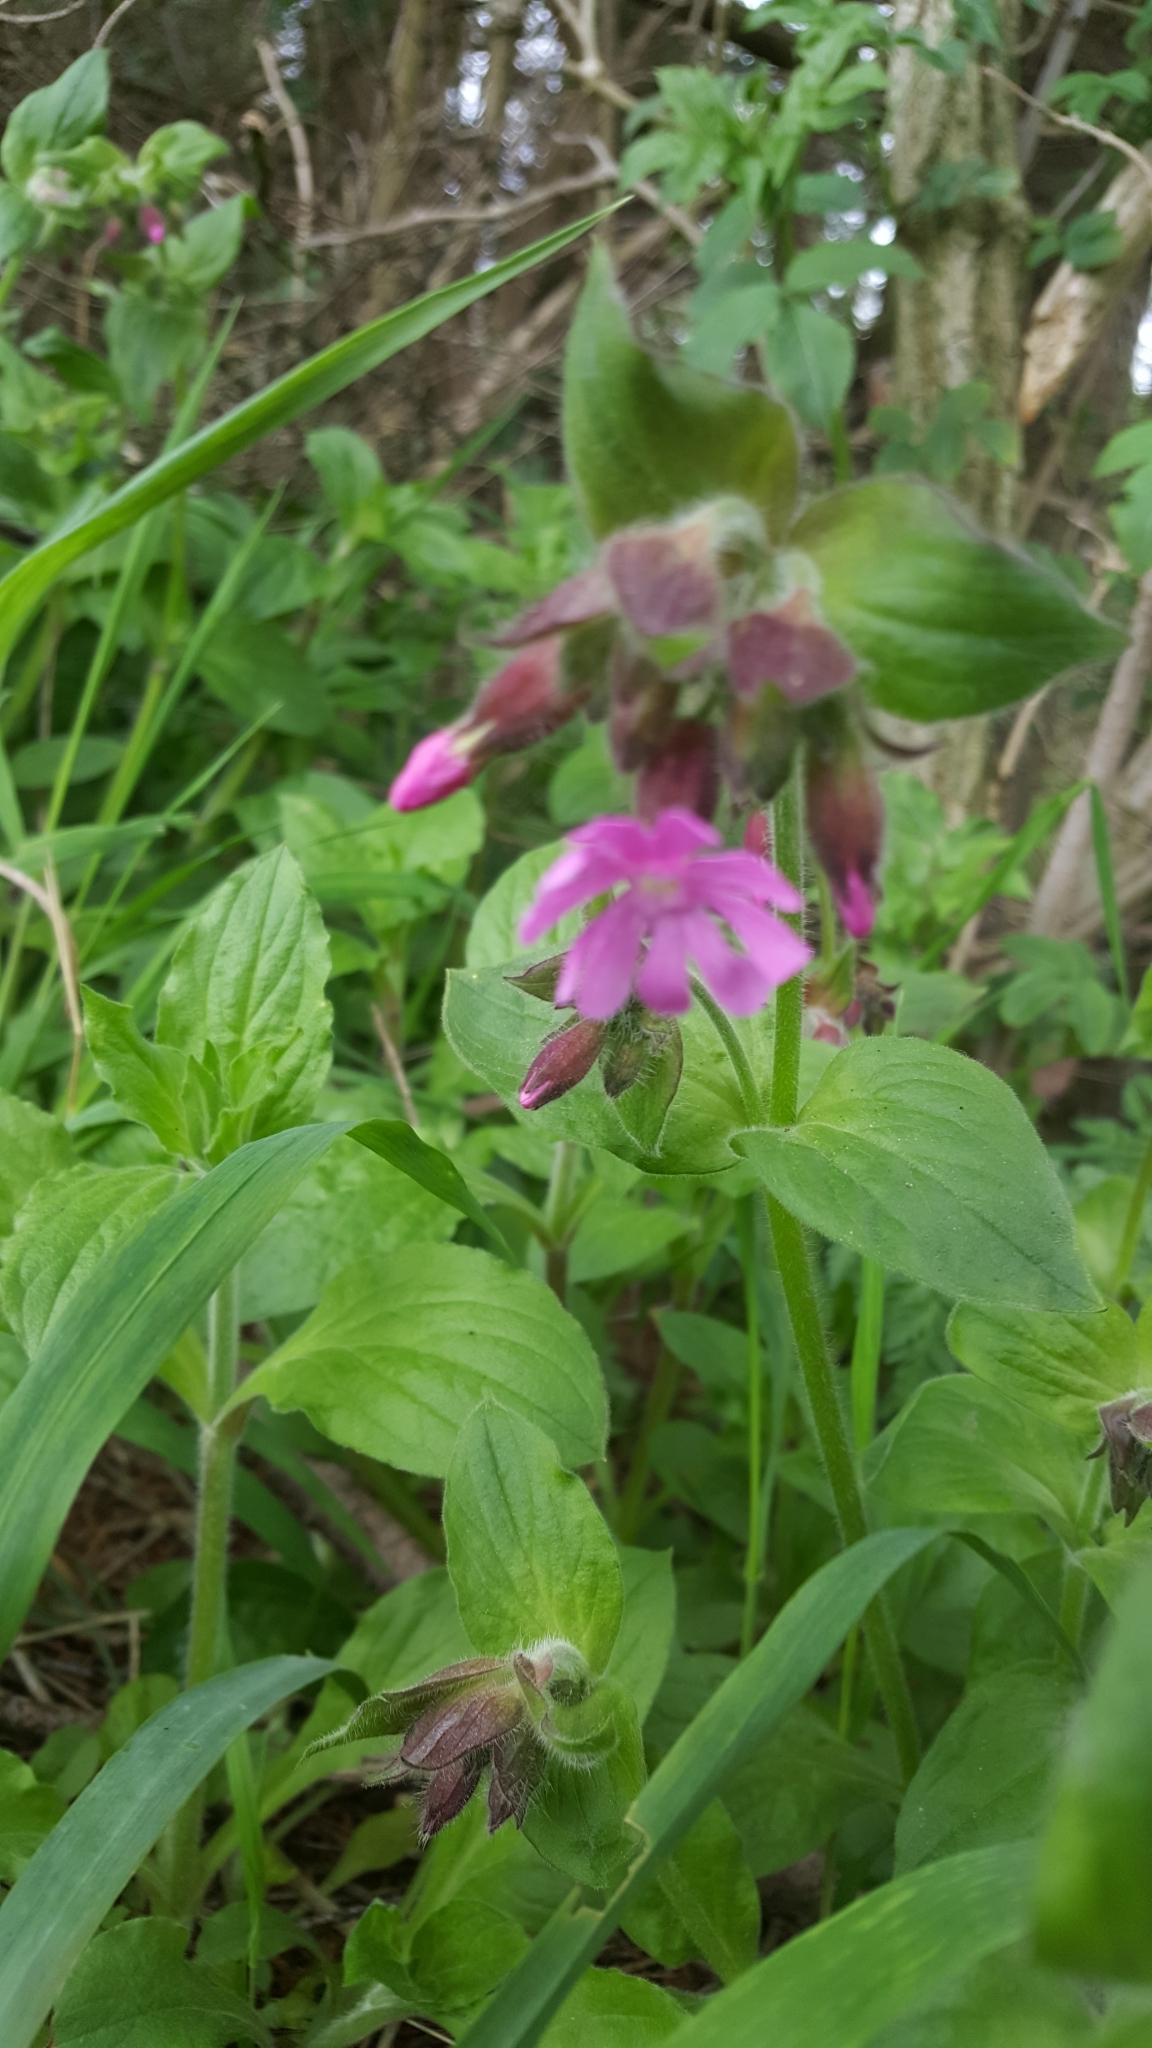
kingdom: Plantae
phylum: Tracheophyta
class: Magnoliopsida
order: Caryophyllales
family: Caryophyllaceae
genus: Silene
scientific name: Silene dioica
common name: Red campion
